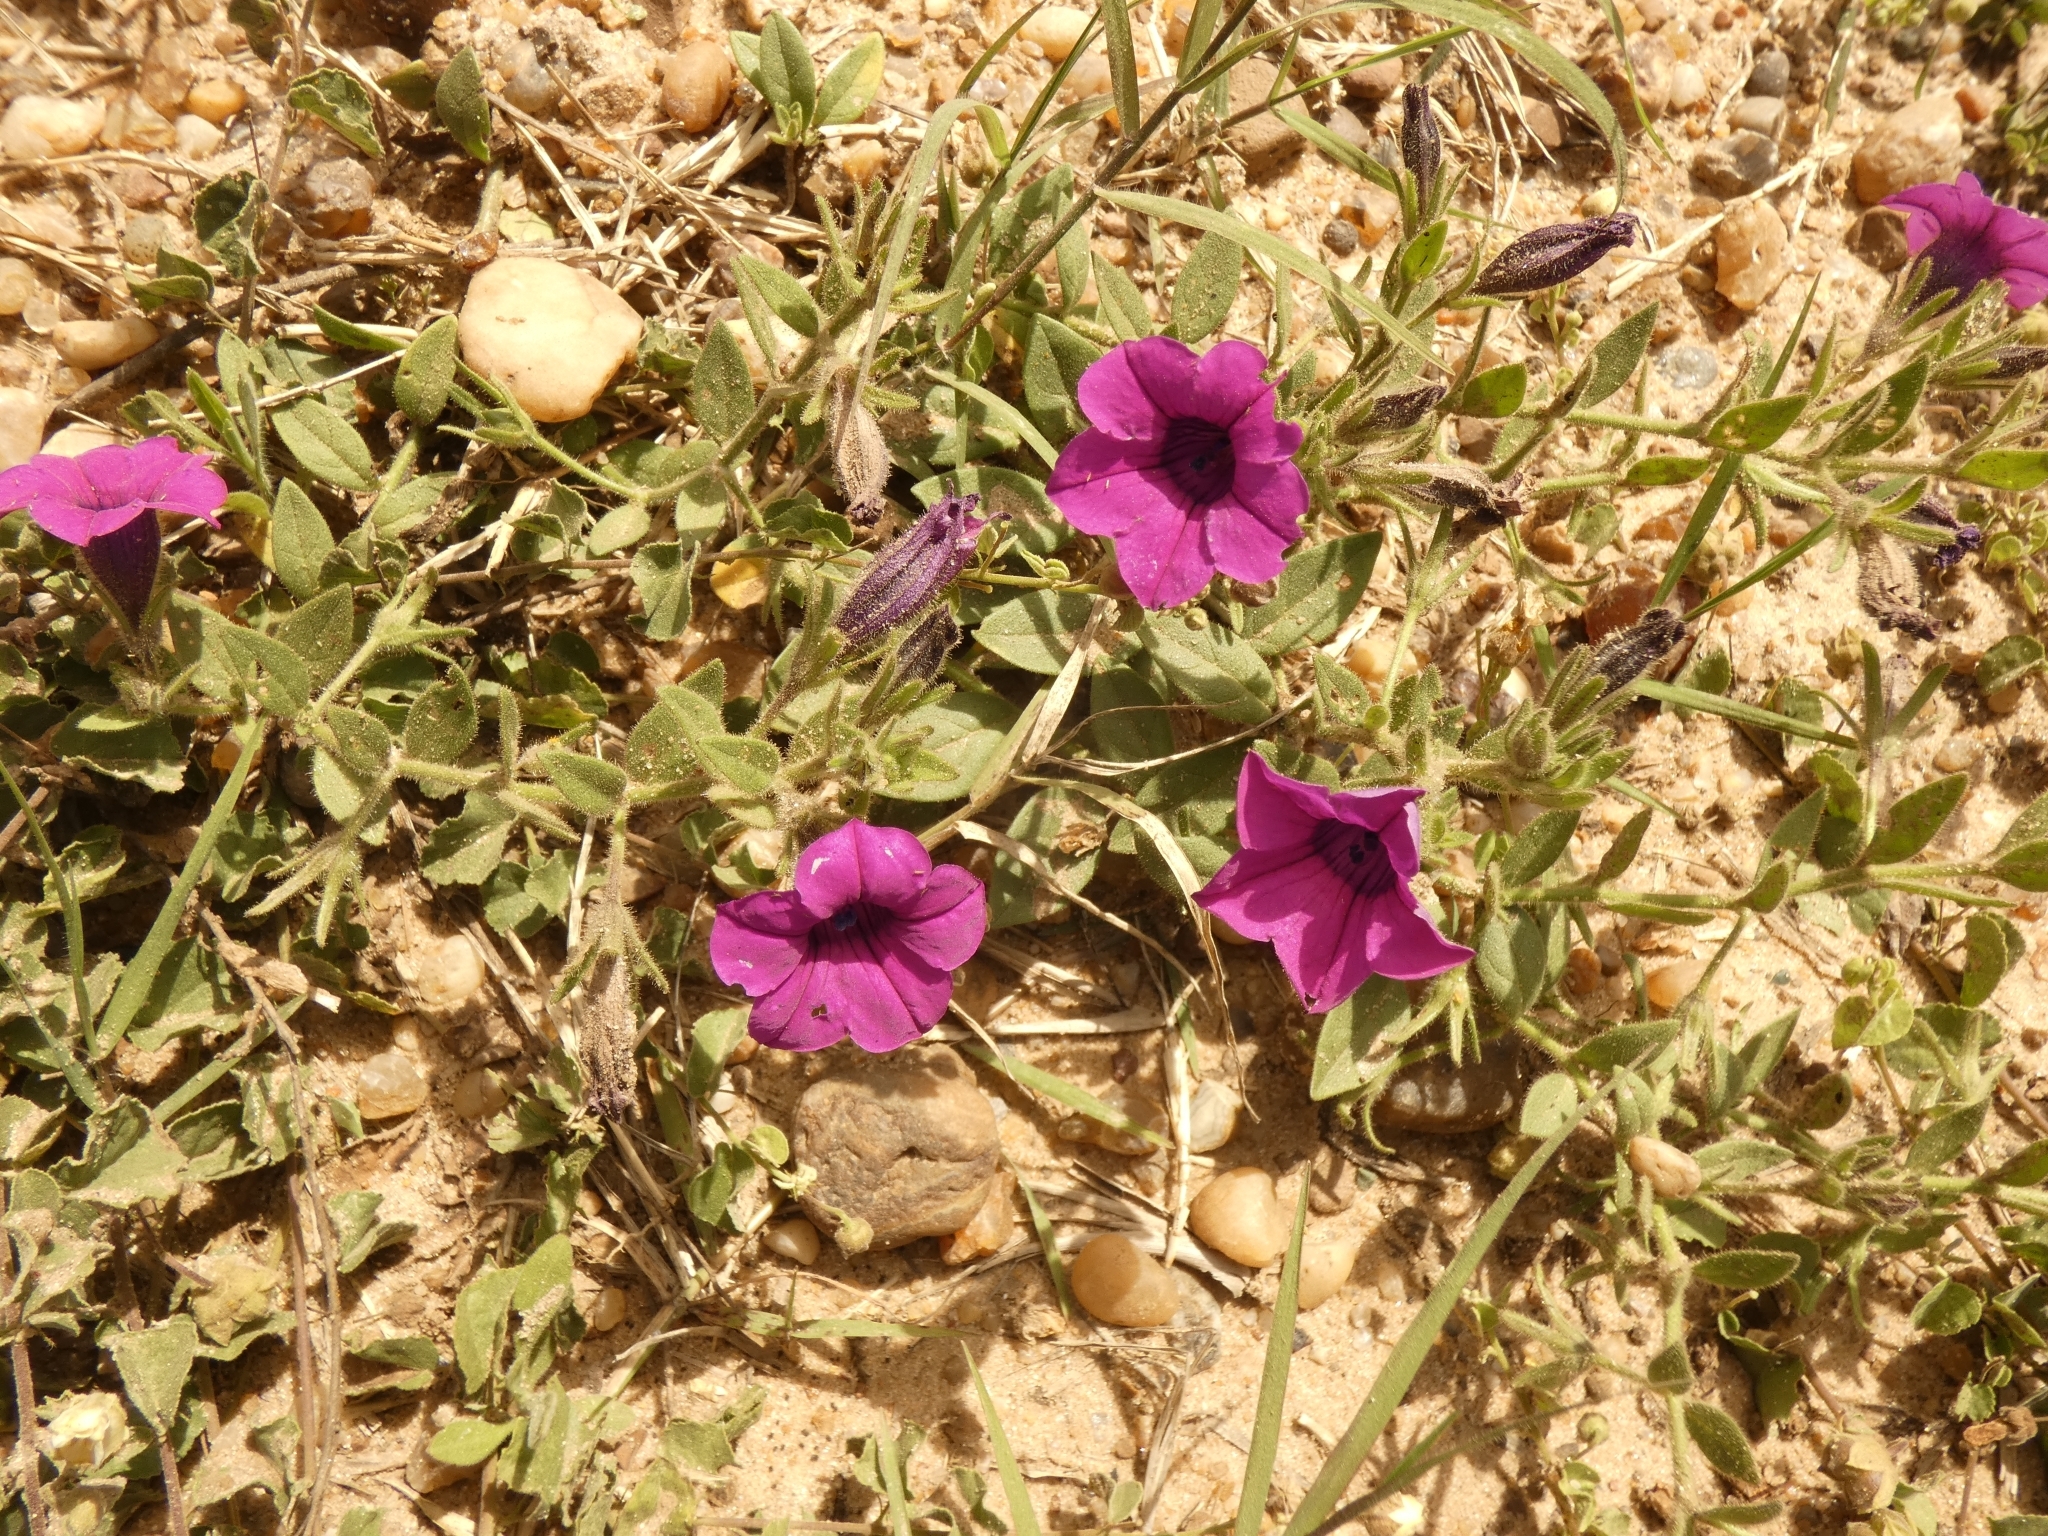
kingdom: Plantae
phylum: Tracheophyta
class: Magnoliopsida
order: Solanales
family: Solanaceae
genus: Petunia
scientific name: Petunia integrifolia
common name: Violet-flower petunia
